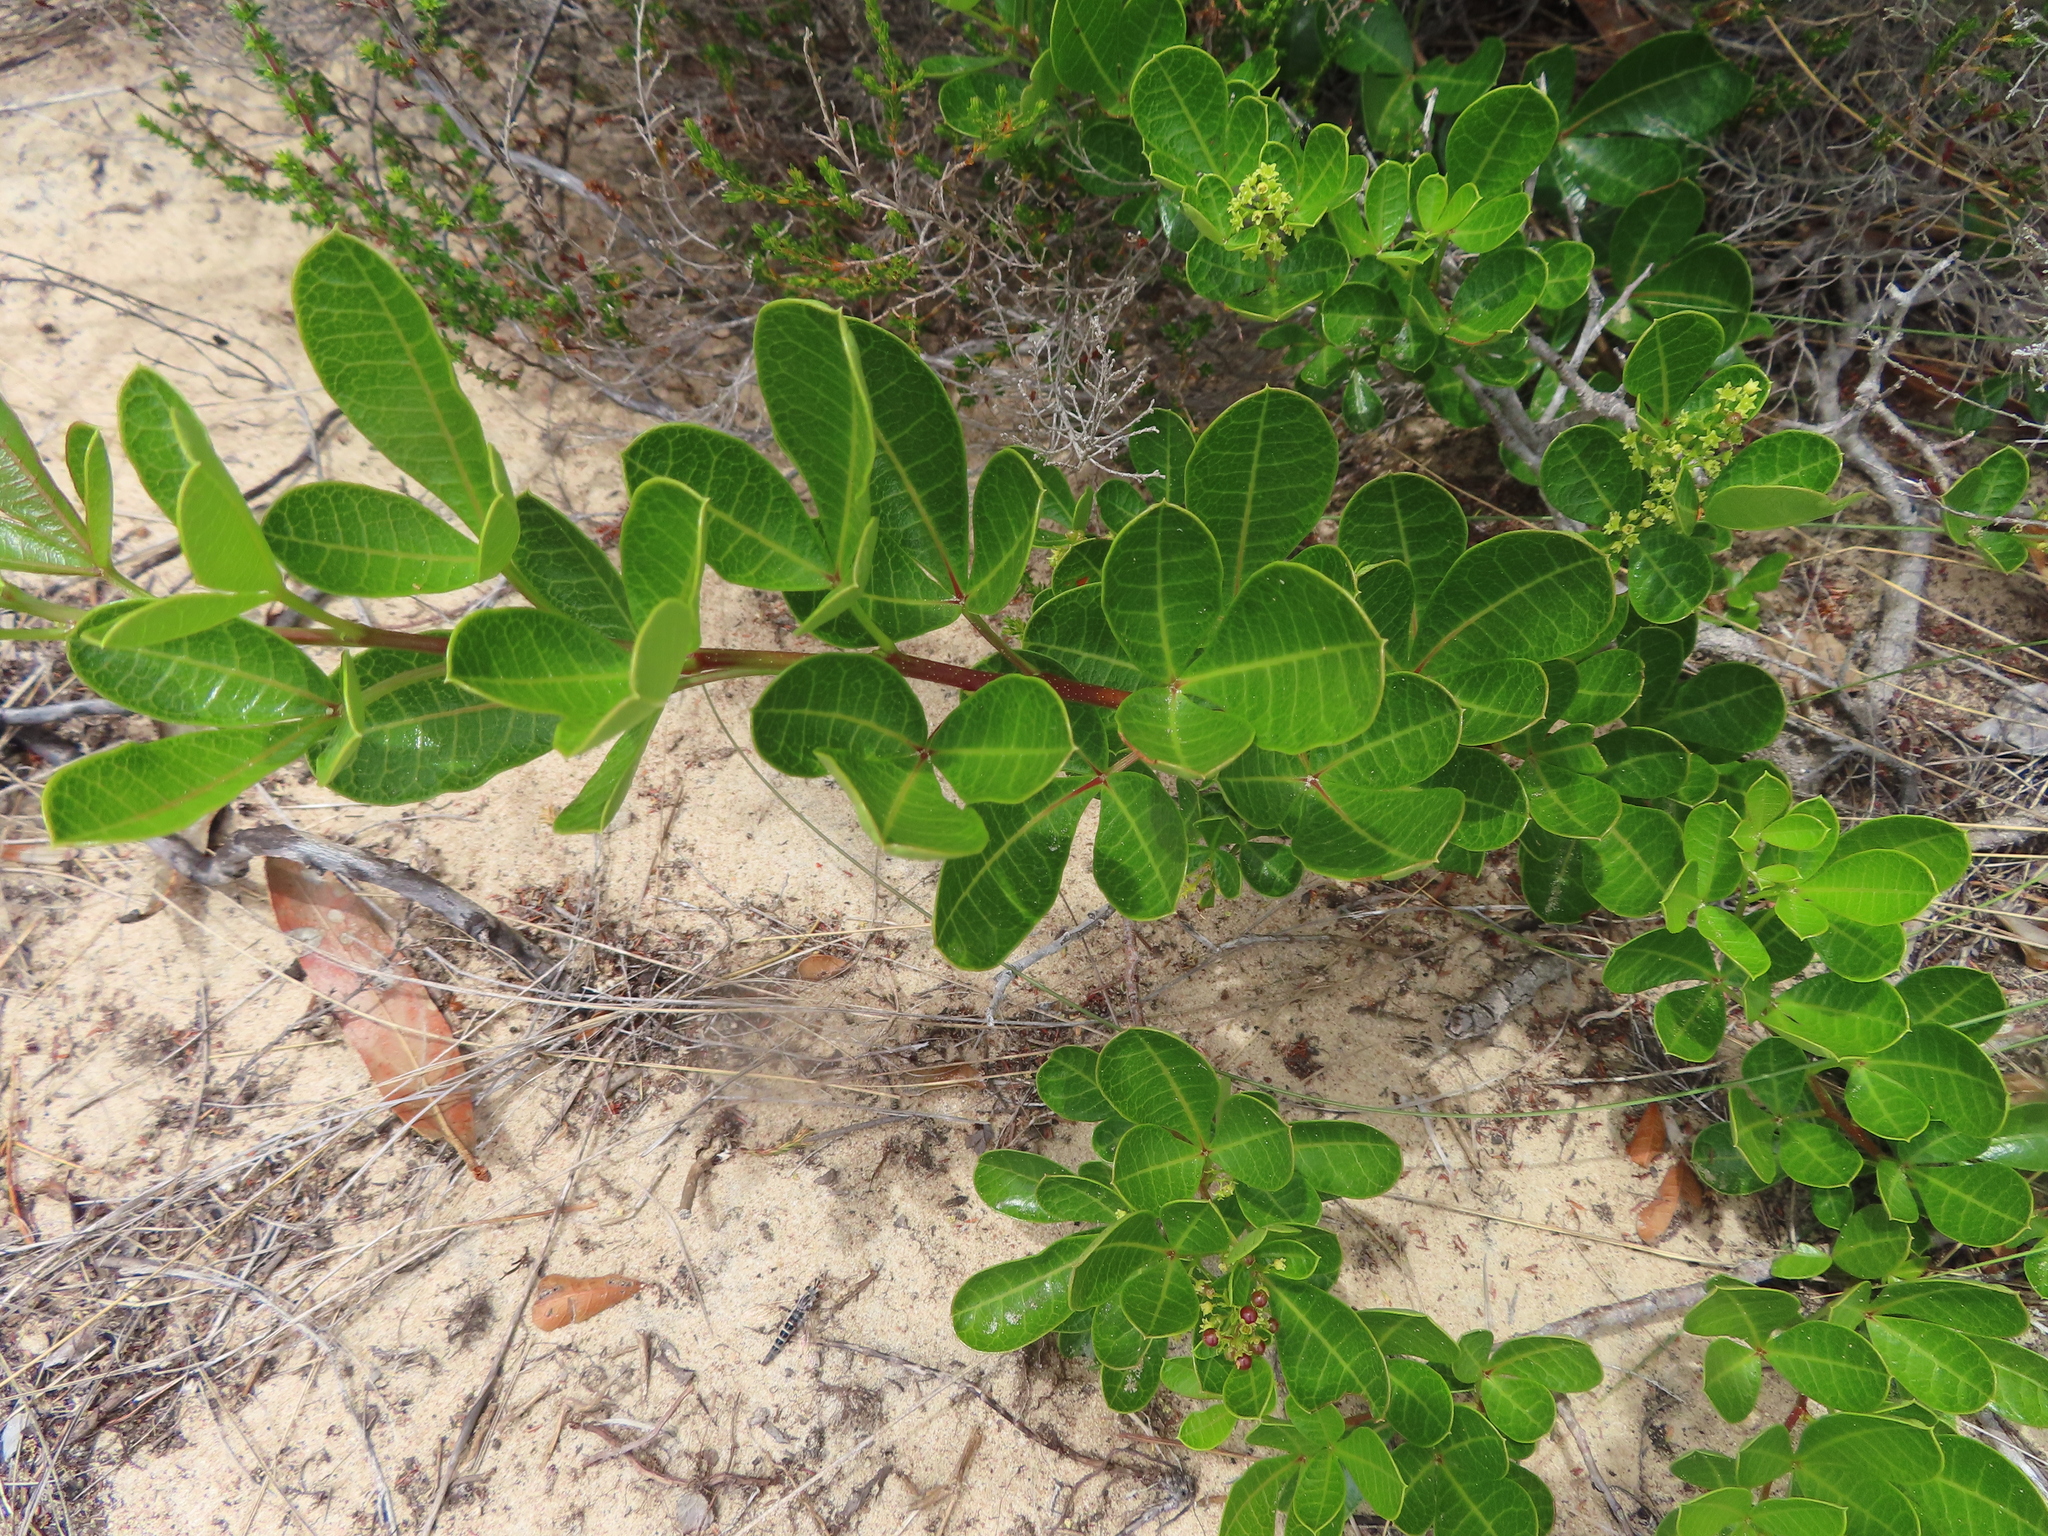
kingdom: Plantae
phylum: Tracheophyta
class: Magnoliopsida
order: Sapindales
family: Anacardiaceae
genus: Searsia
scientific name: Searsia laevigata
